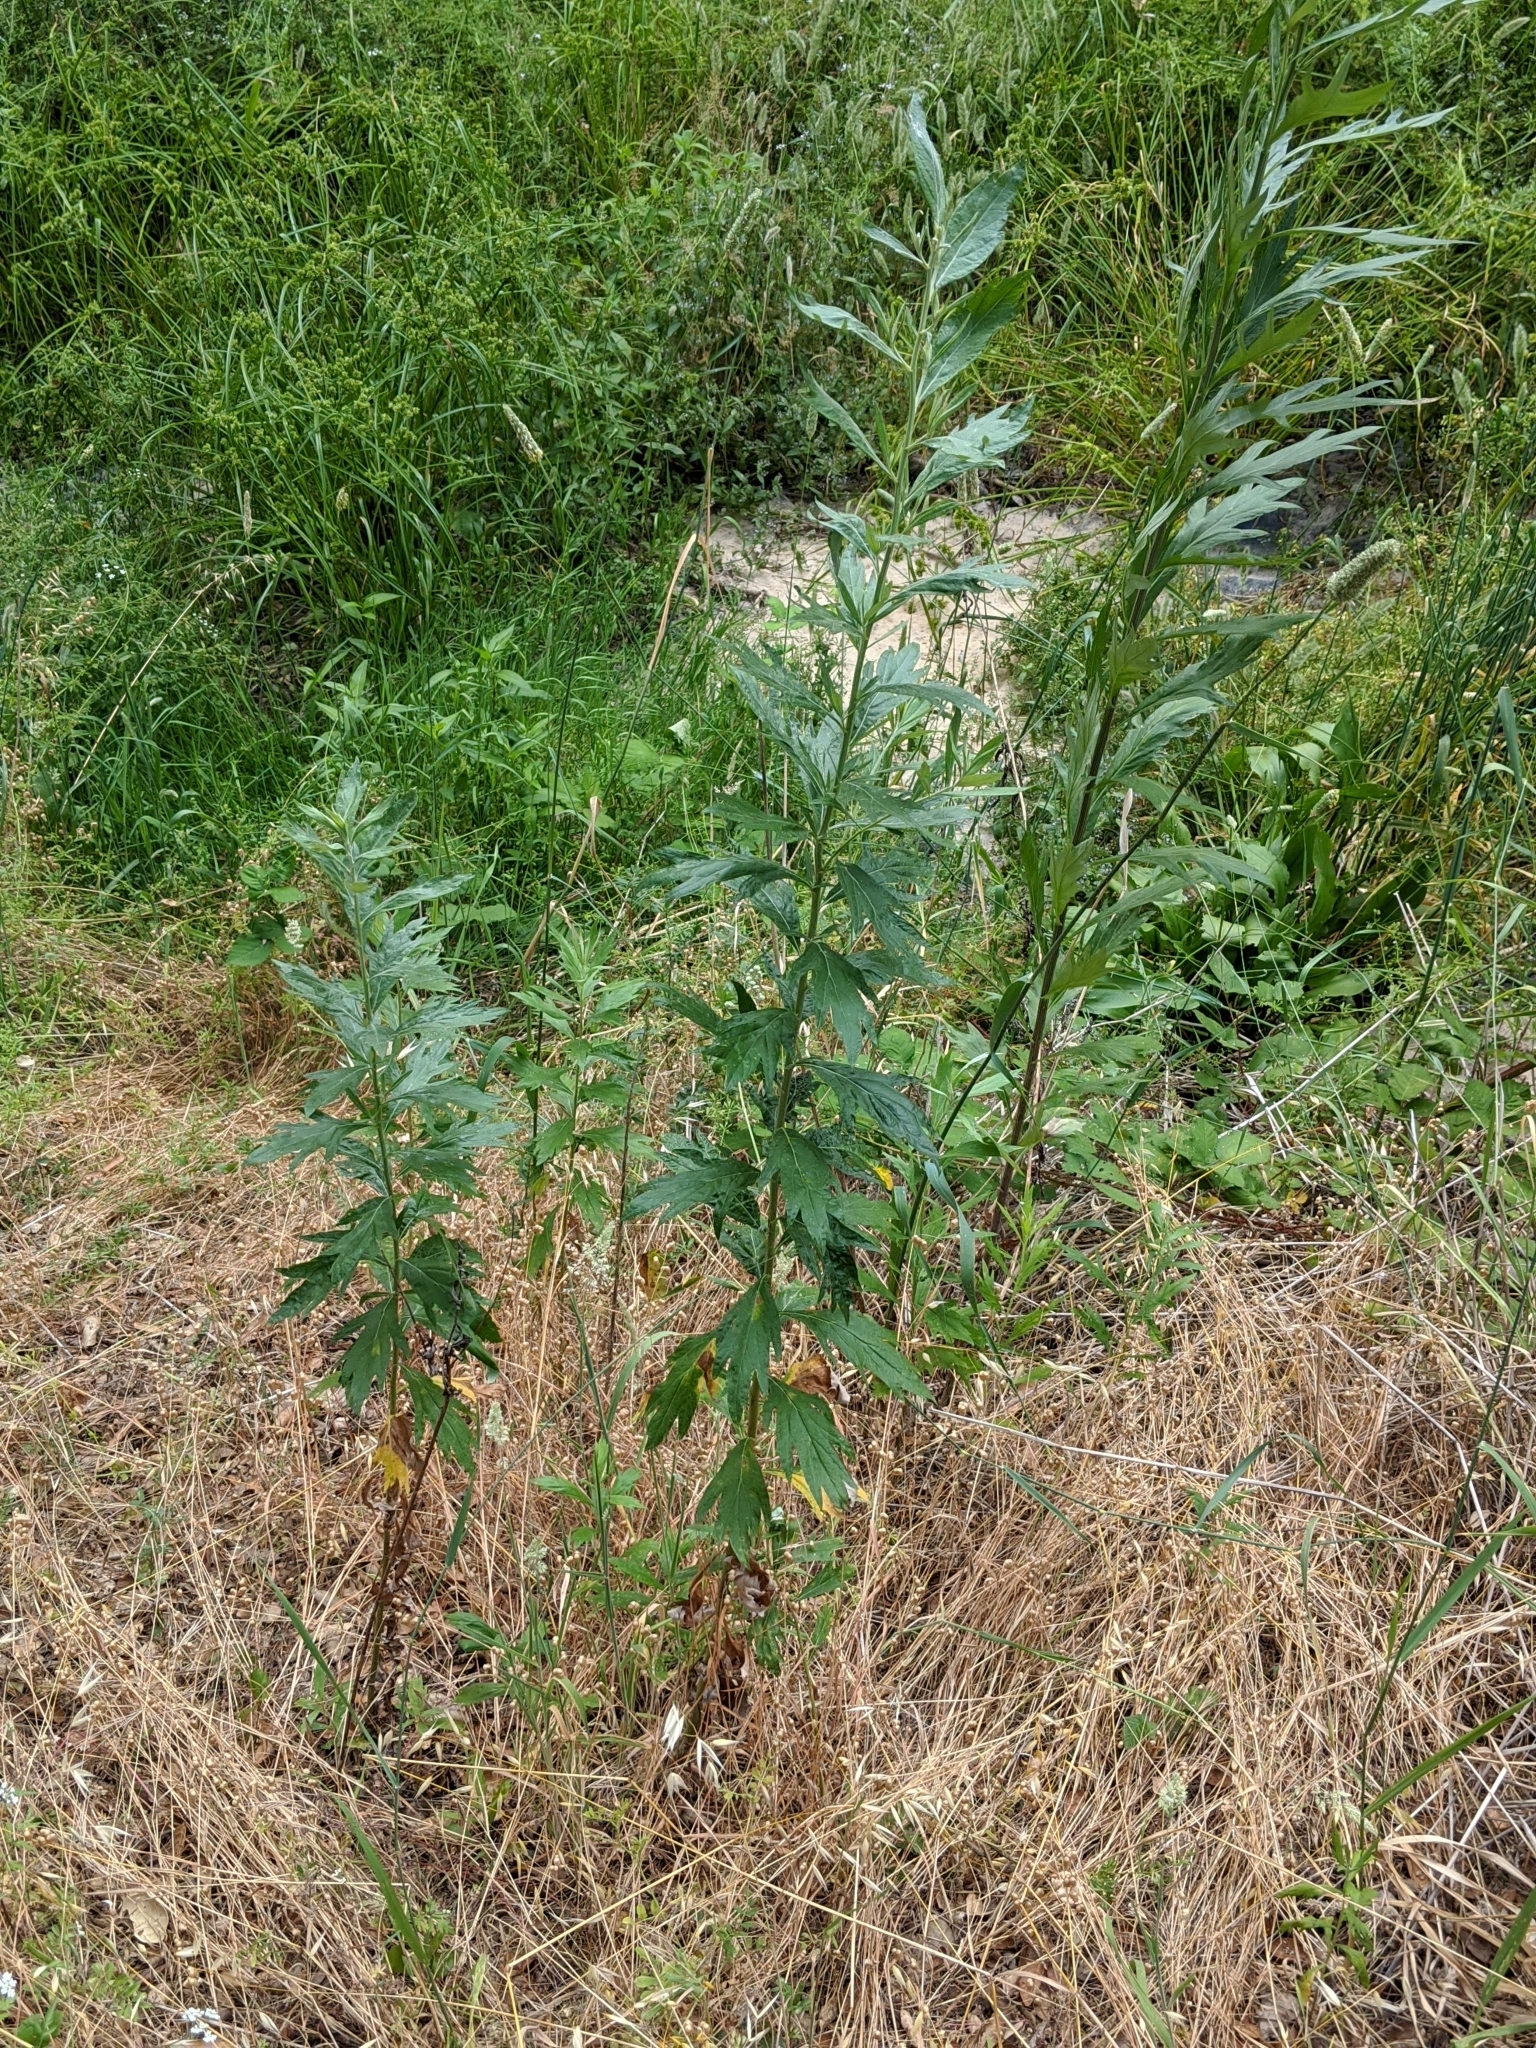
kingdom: Plantae
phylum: Tracheophyta
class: Magnoliopsida
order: Asterales
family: Asteraceae
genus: Artemisia
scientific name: Artemisia douglasiana
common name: Northwest mugwort
